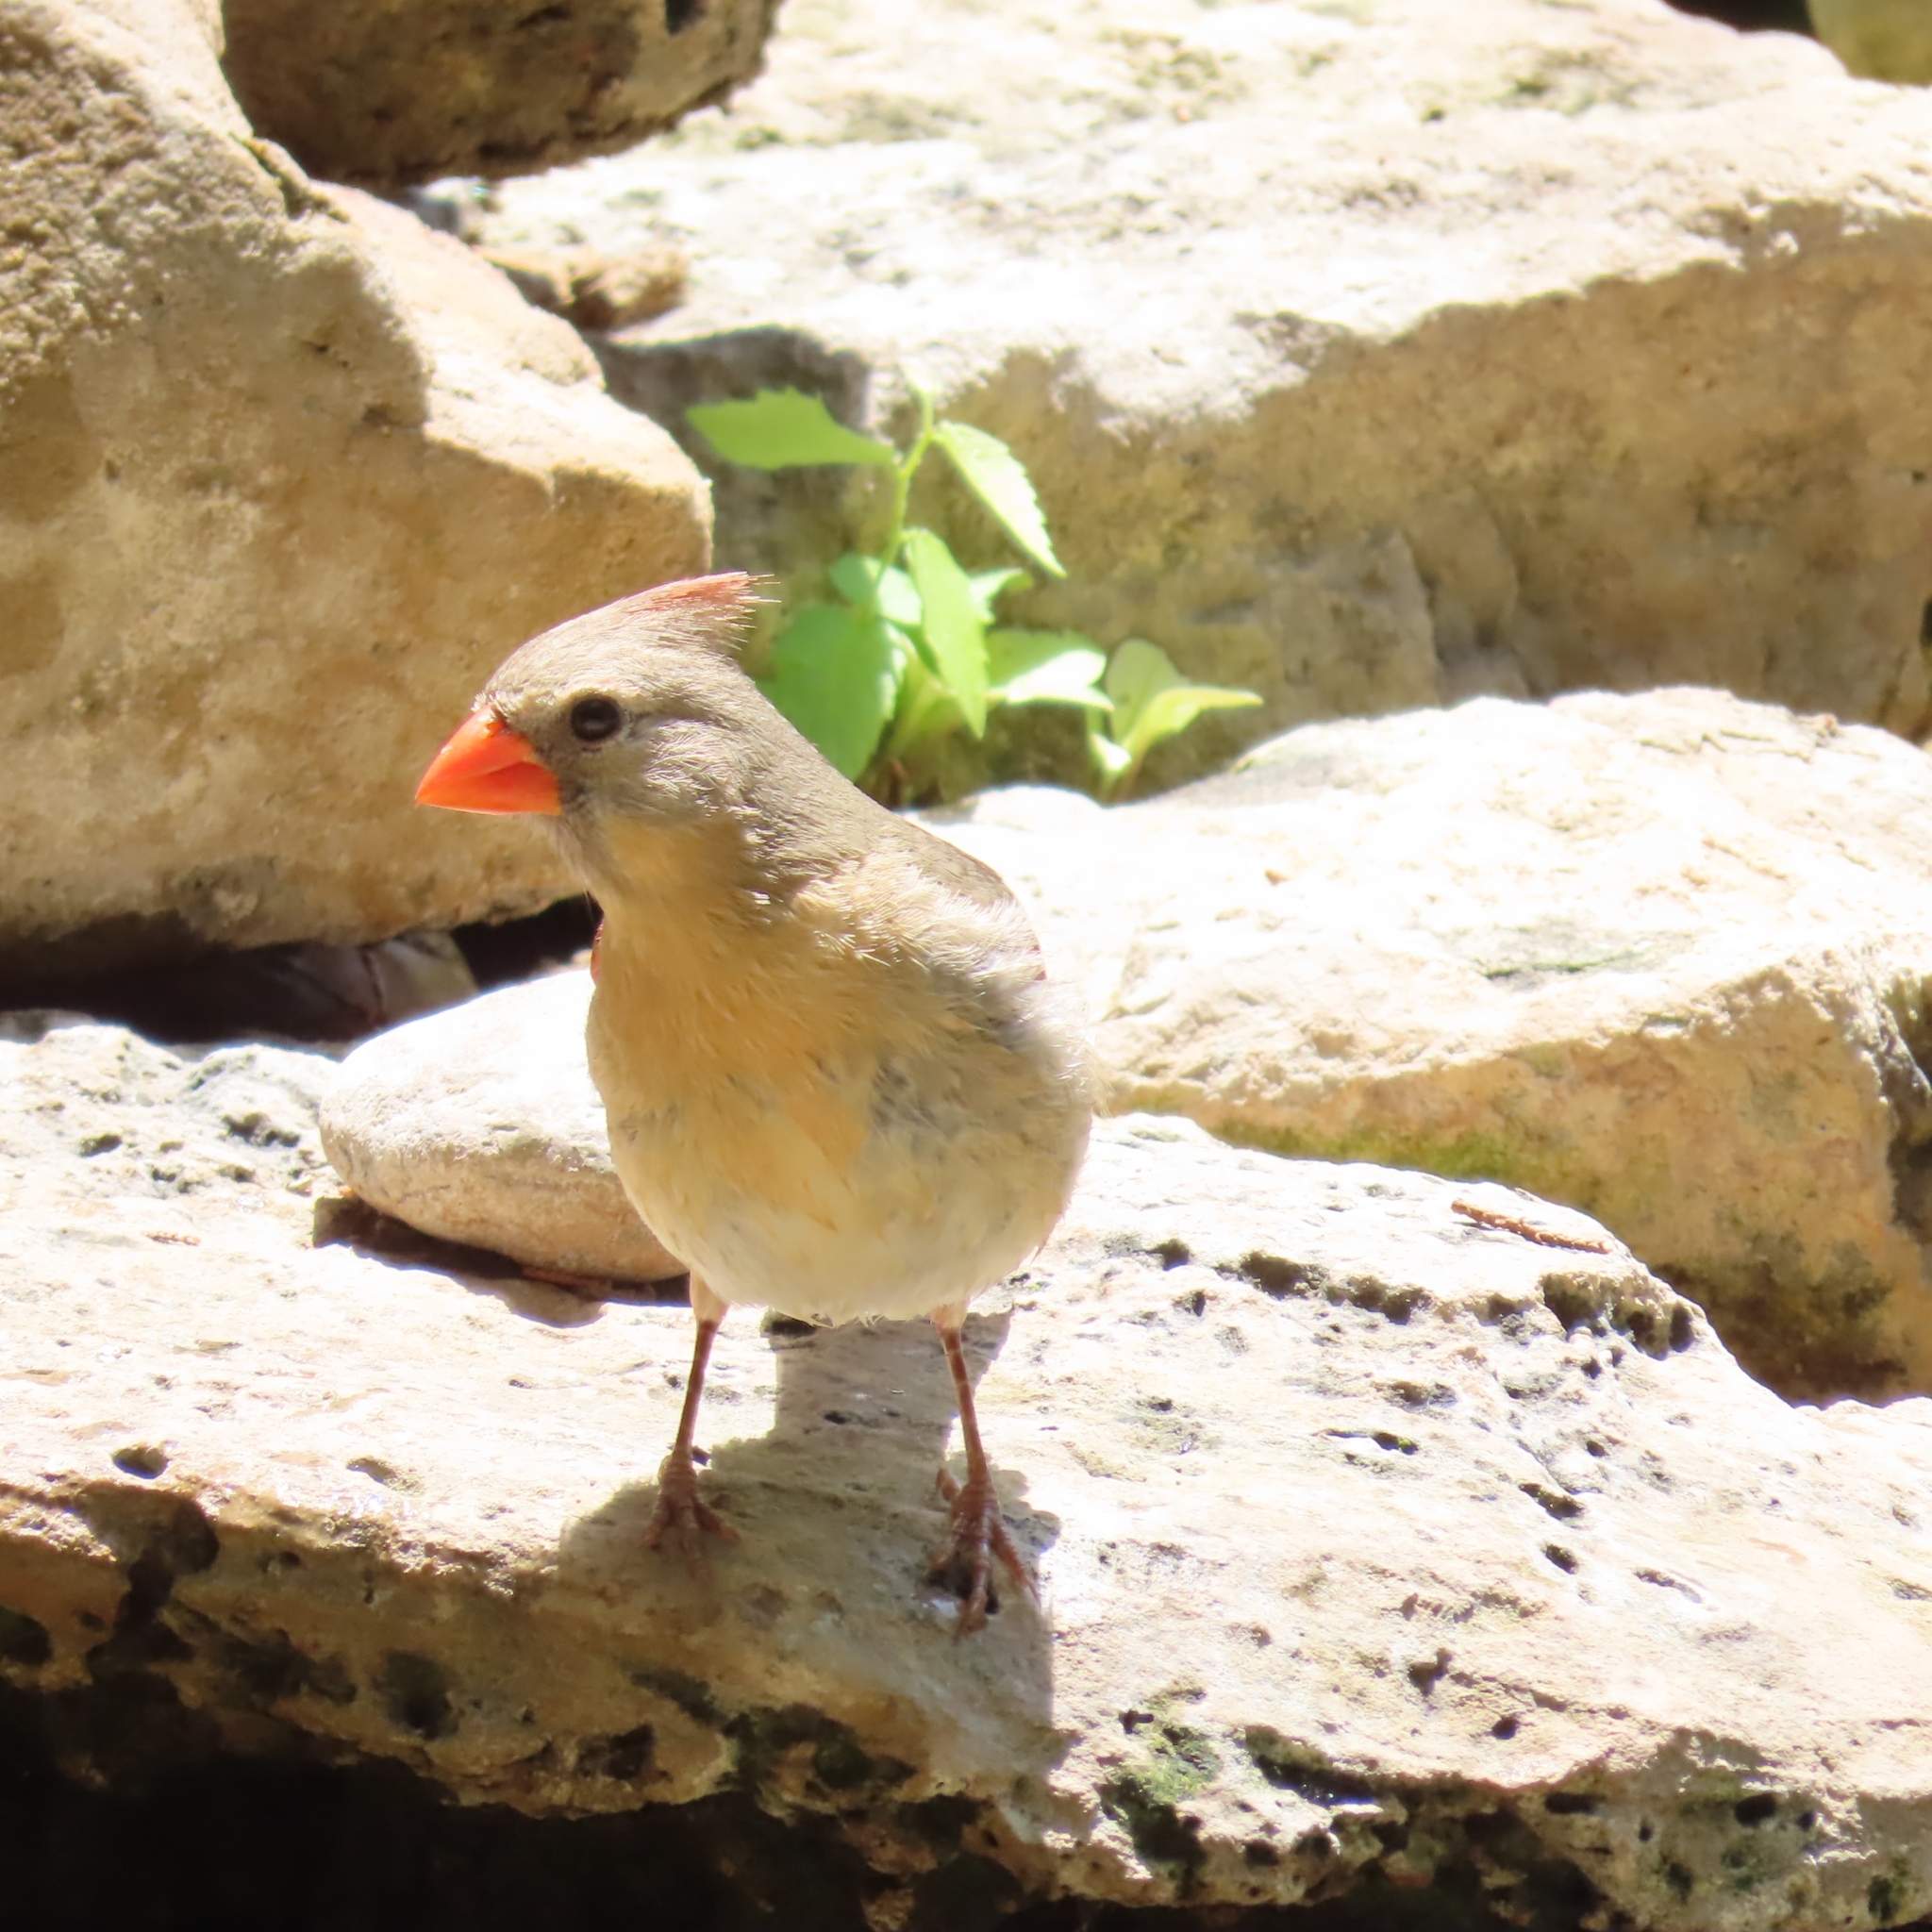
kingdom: Animalia
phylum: Chordata
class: Aves
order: Passeriformes
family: Cardinalidae
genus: Cardinalis
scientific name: Cardinalis cardinalis
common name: Northern cardinal
